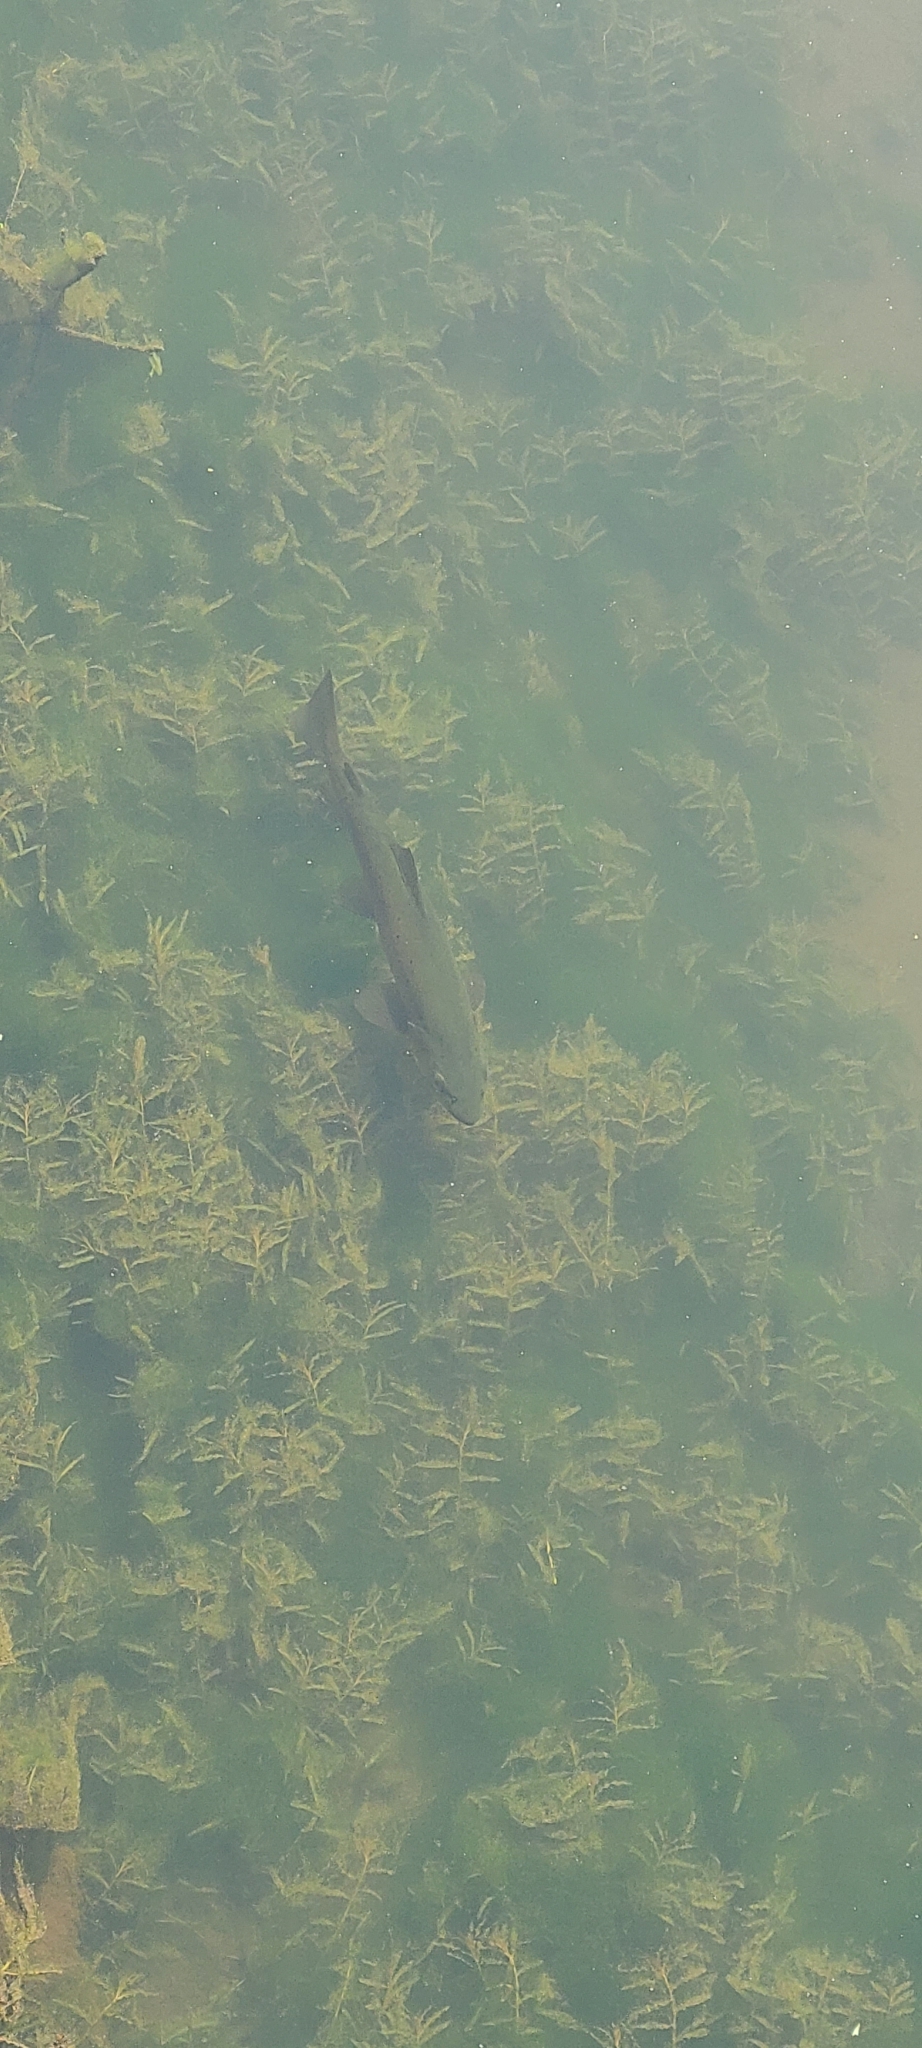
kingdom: Animalia
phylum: Chordata
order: Salmoniformes
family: Salmonidae
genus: Salmo
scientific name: Salmo trutta
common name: Brown trout
